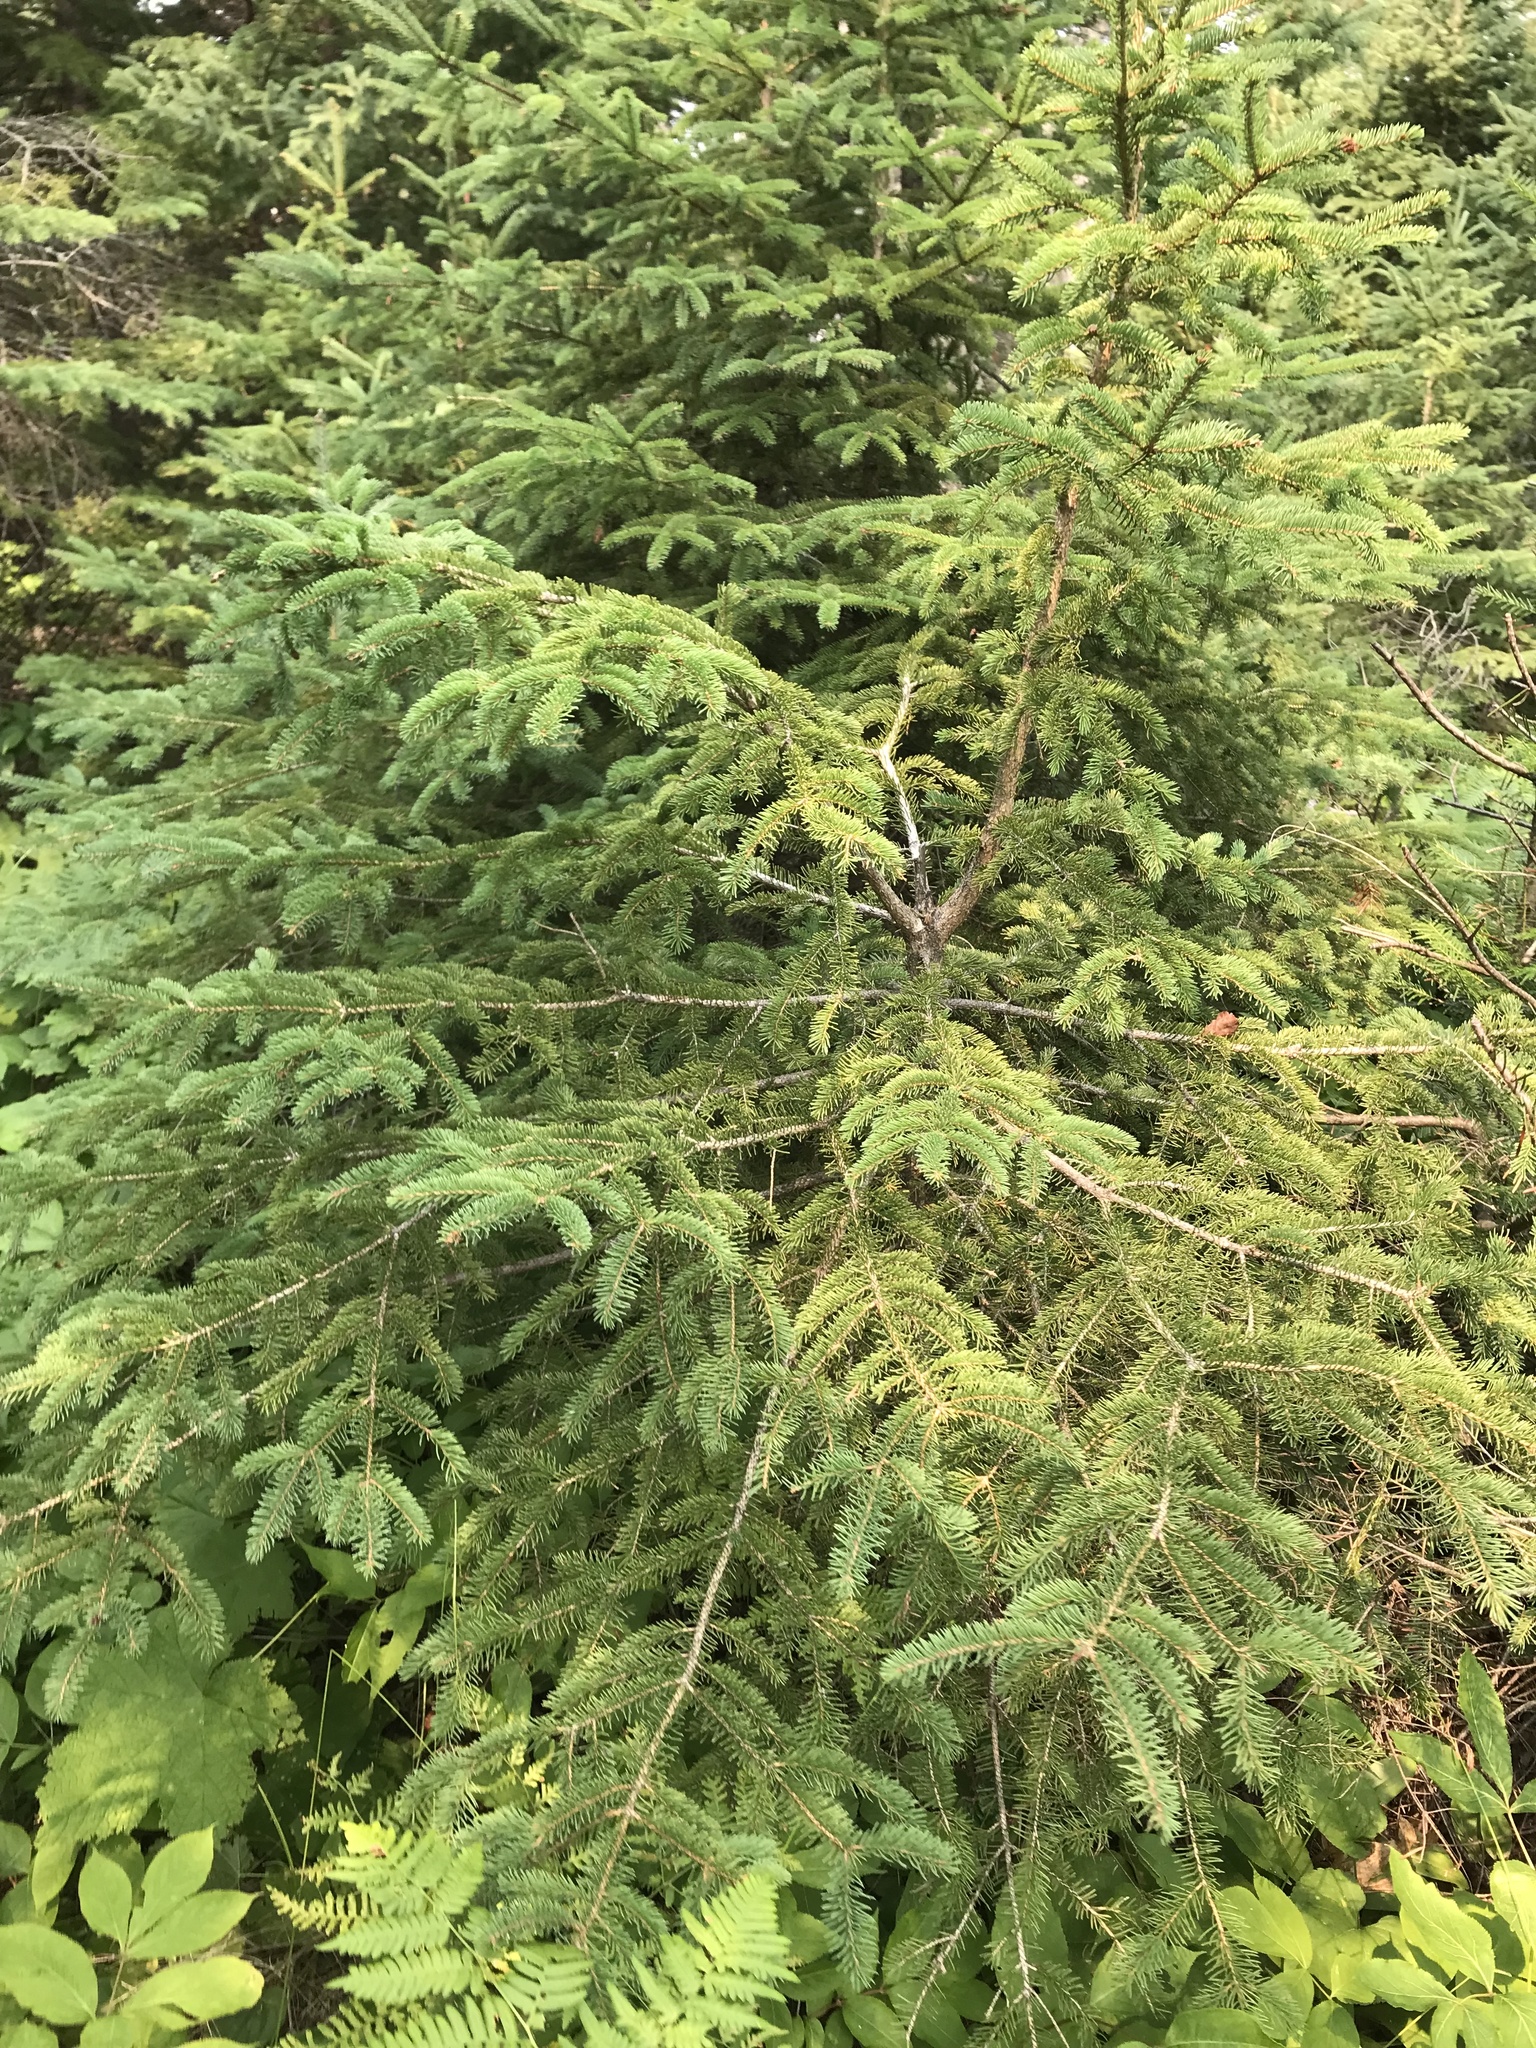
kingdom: Plantae
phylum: Tracheophyta
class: Pinopsida
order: Pinales
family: Pinaceae
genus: Picea
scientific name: Picea glauca
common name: White spruce
